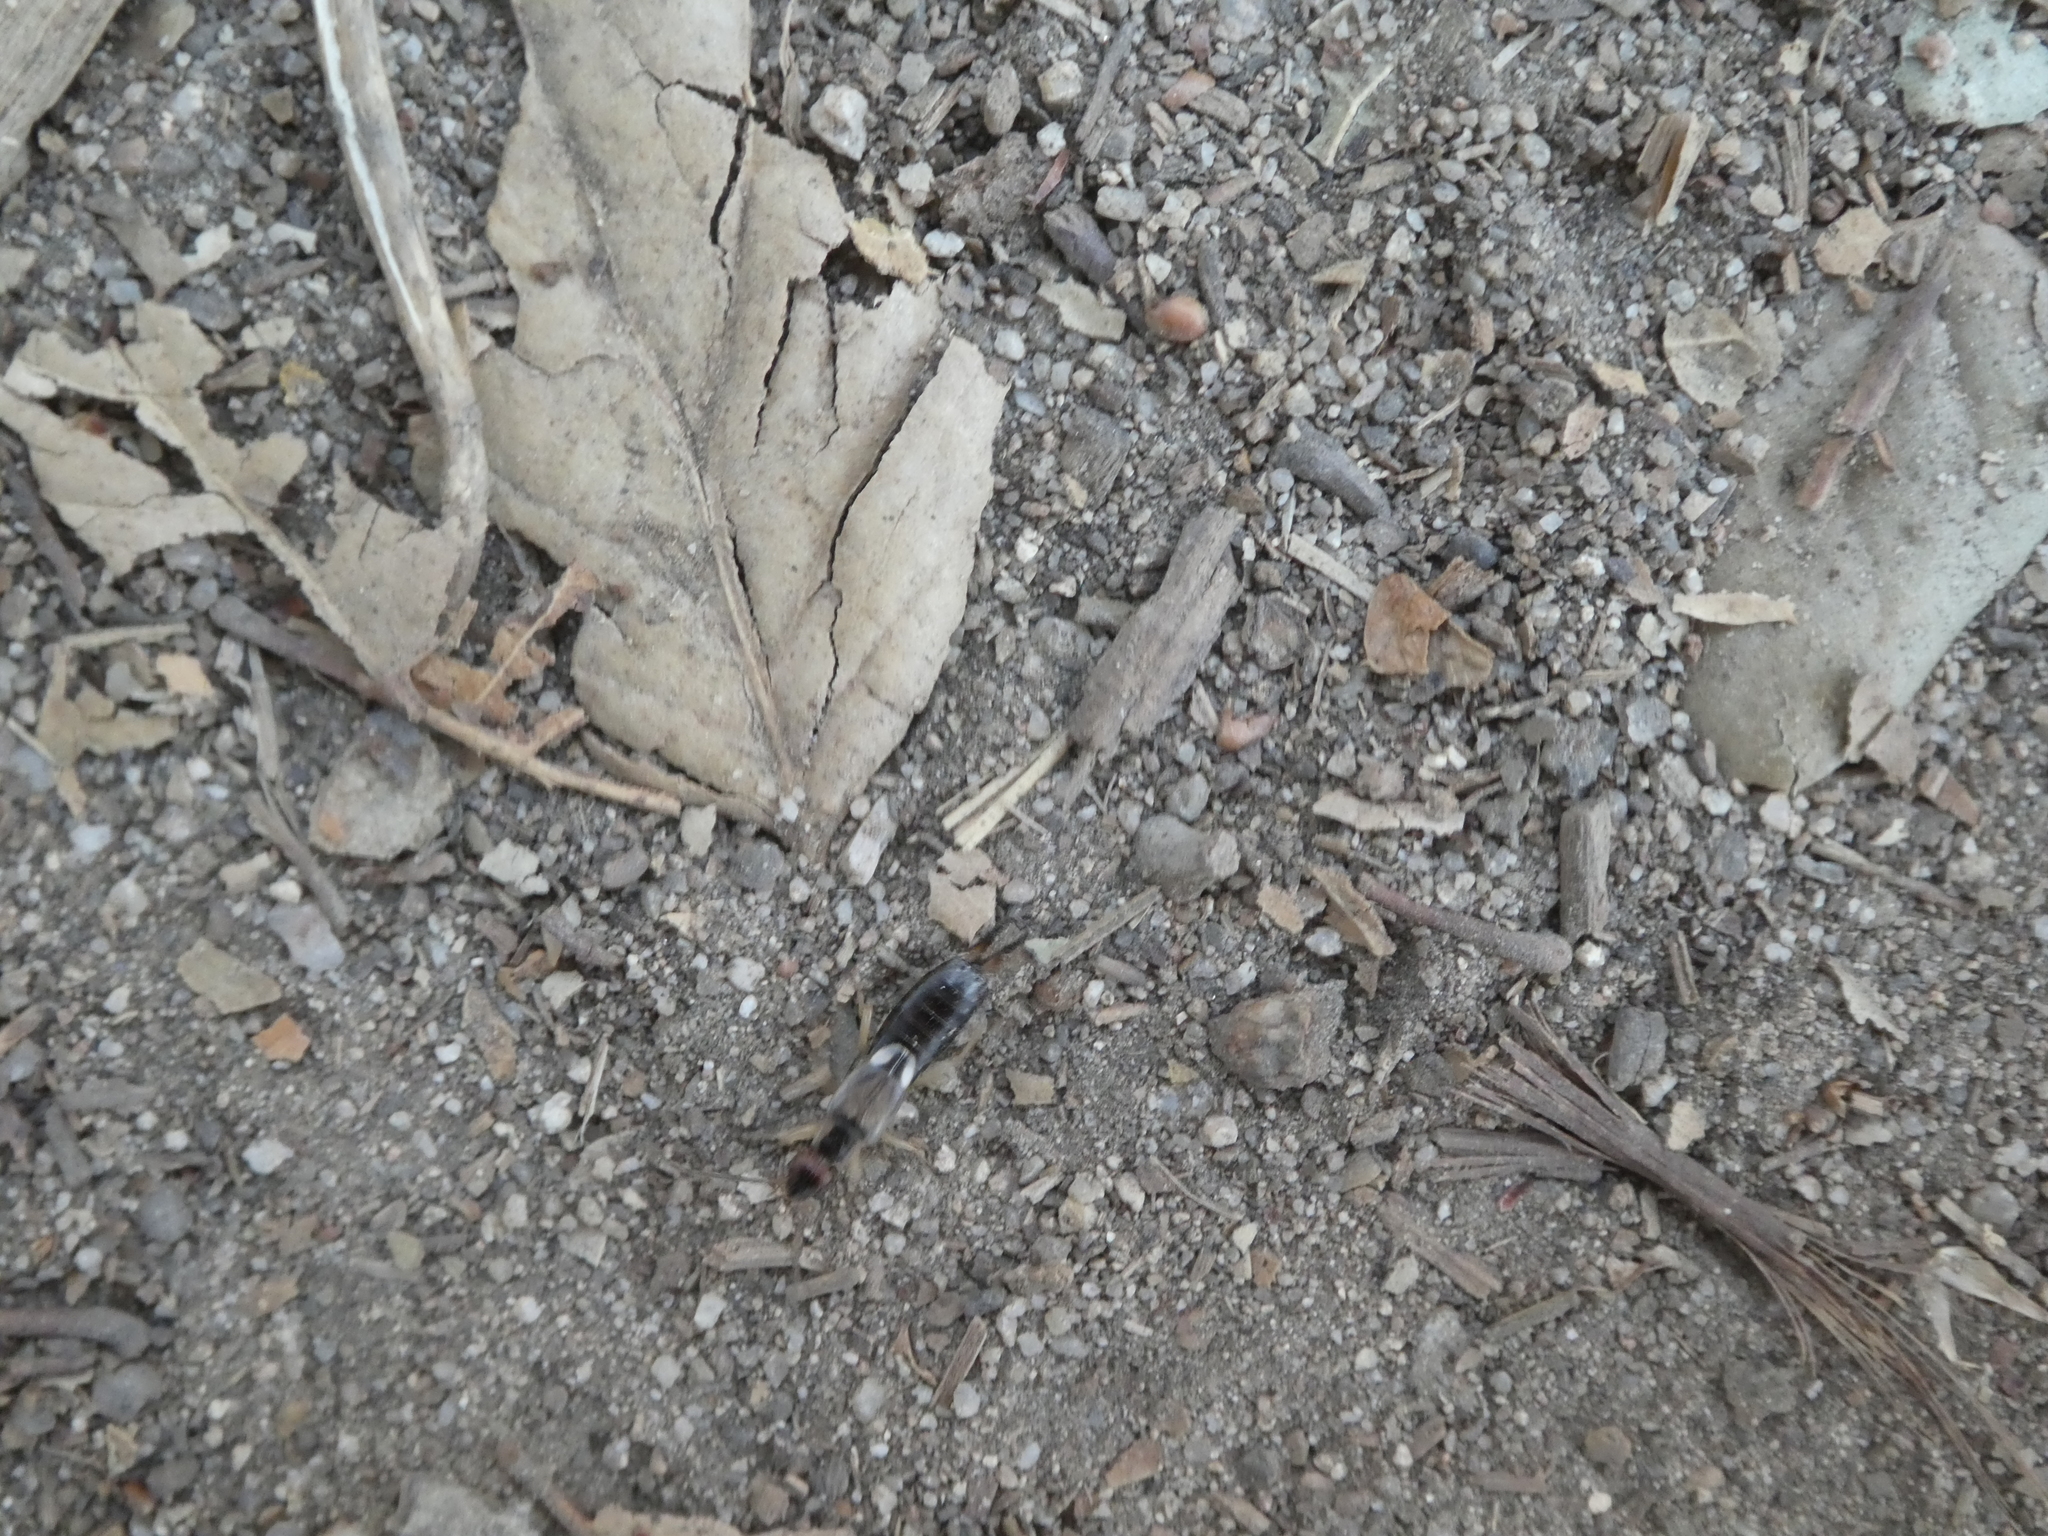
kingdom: Animalia
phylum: Arthropoda
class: Insecta
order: Dermaptera
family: Forficulidae
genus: Forficula
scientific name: Forficula
